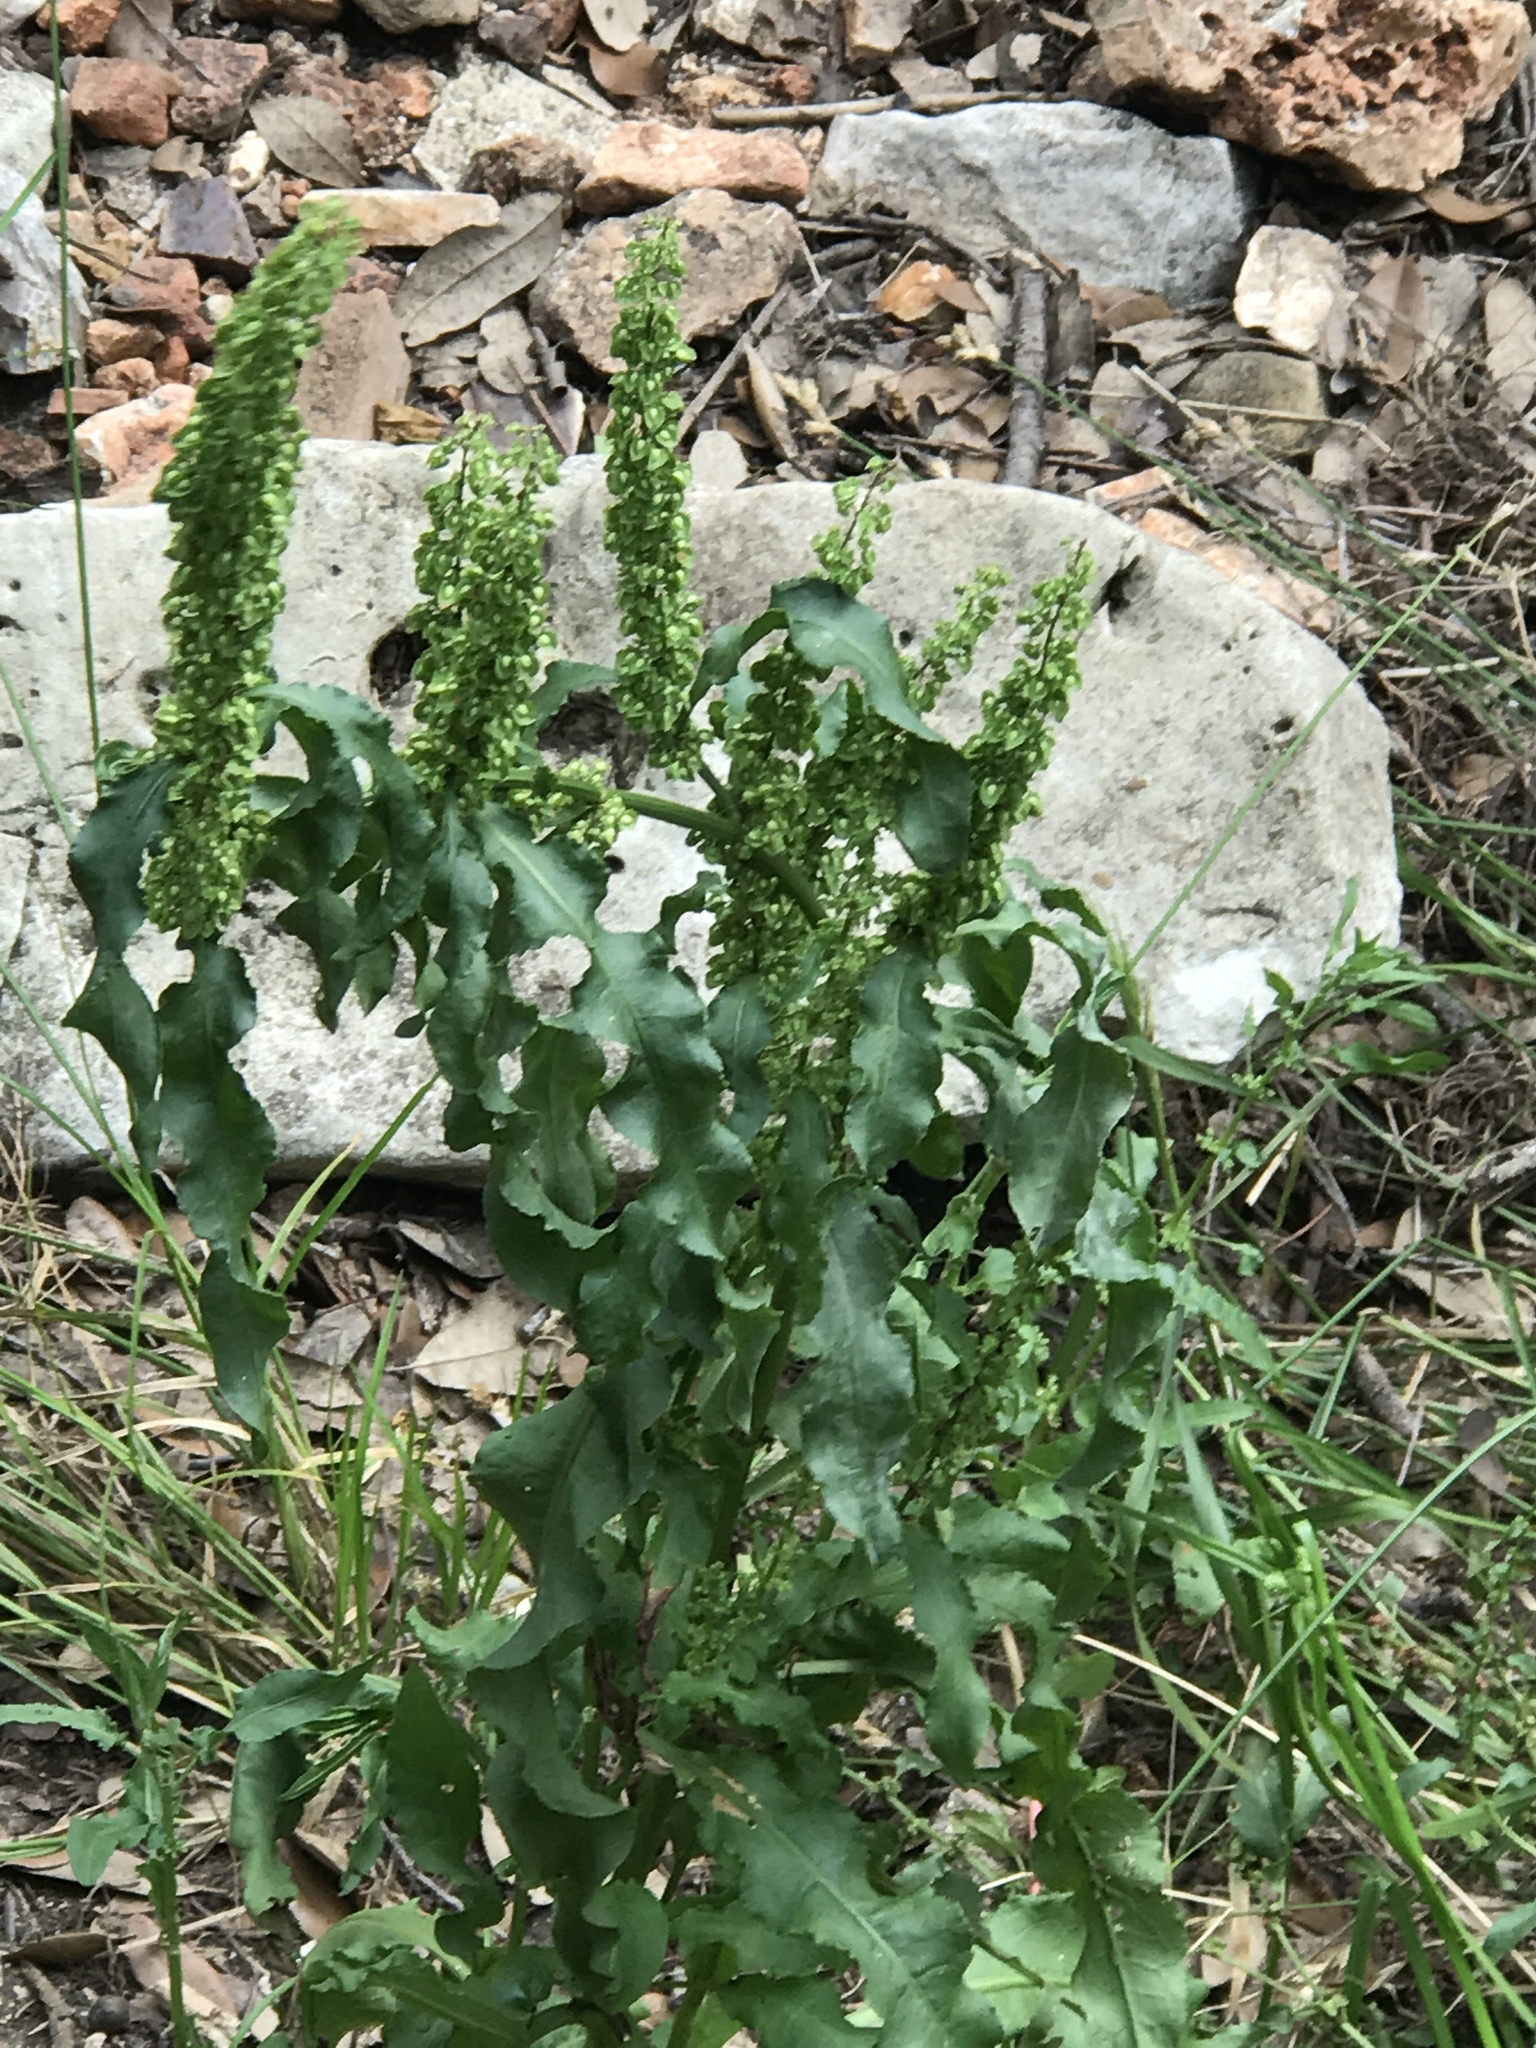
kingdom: Plantae
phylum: Tracheophyta
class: Magnoliopsida
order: Caryophyllales
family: Polygonaceae
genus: Rumex
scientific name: Rumex crispus
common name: Curled dock
